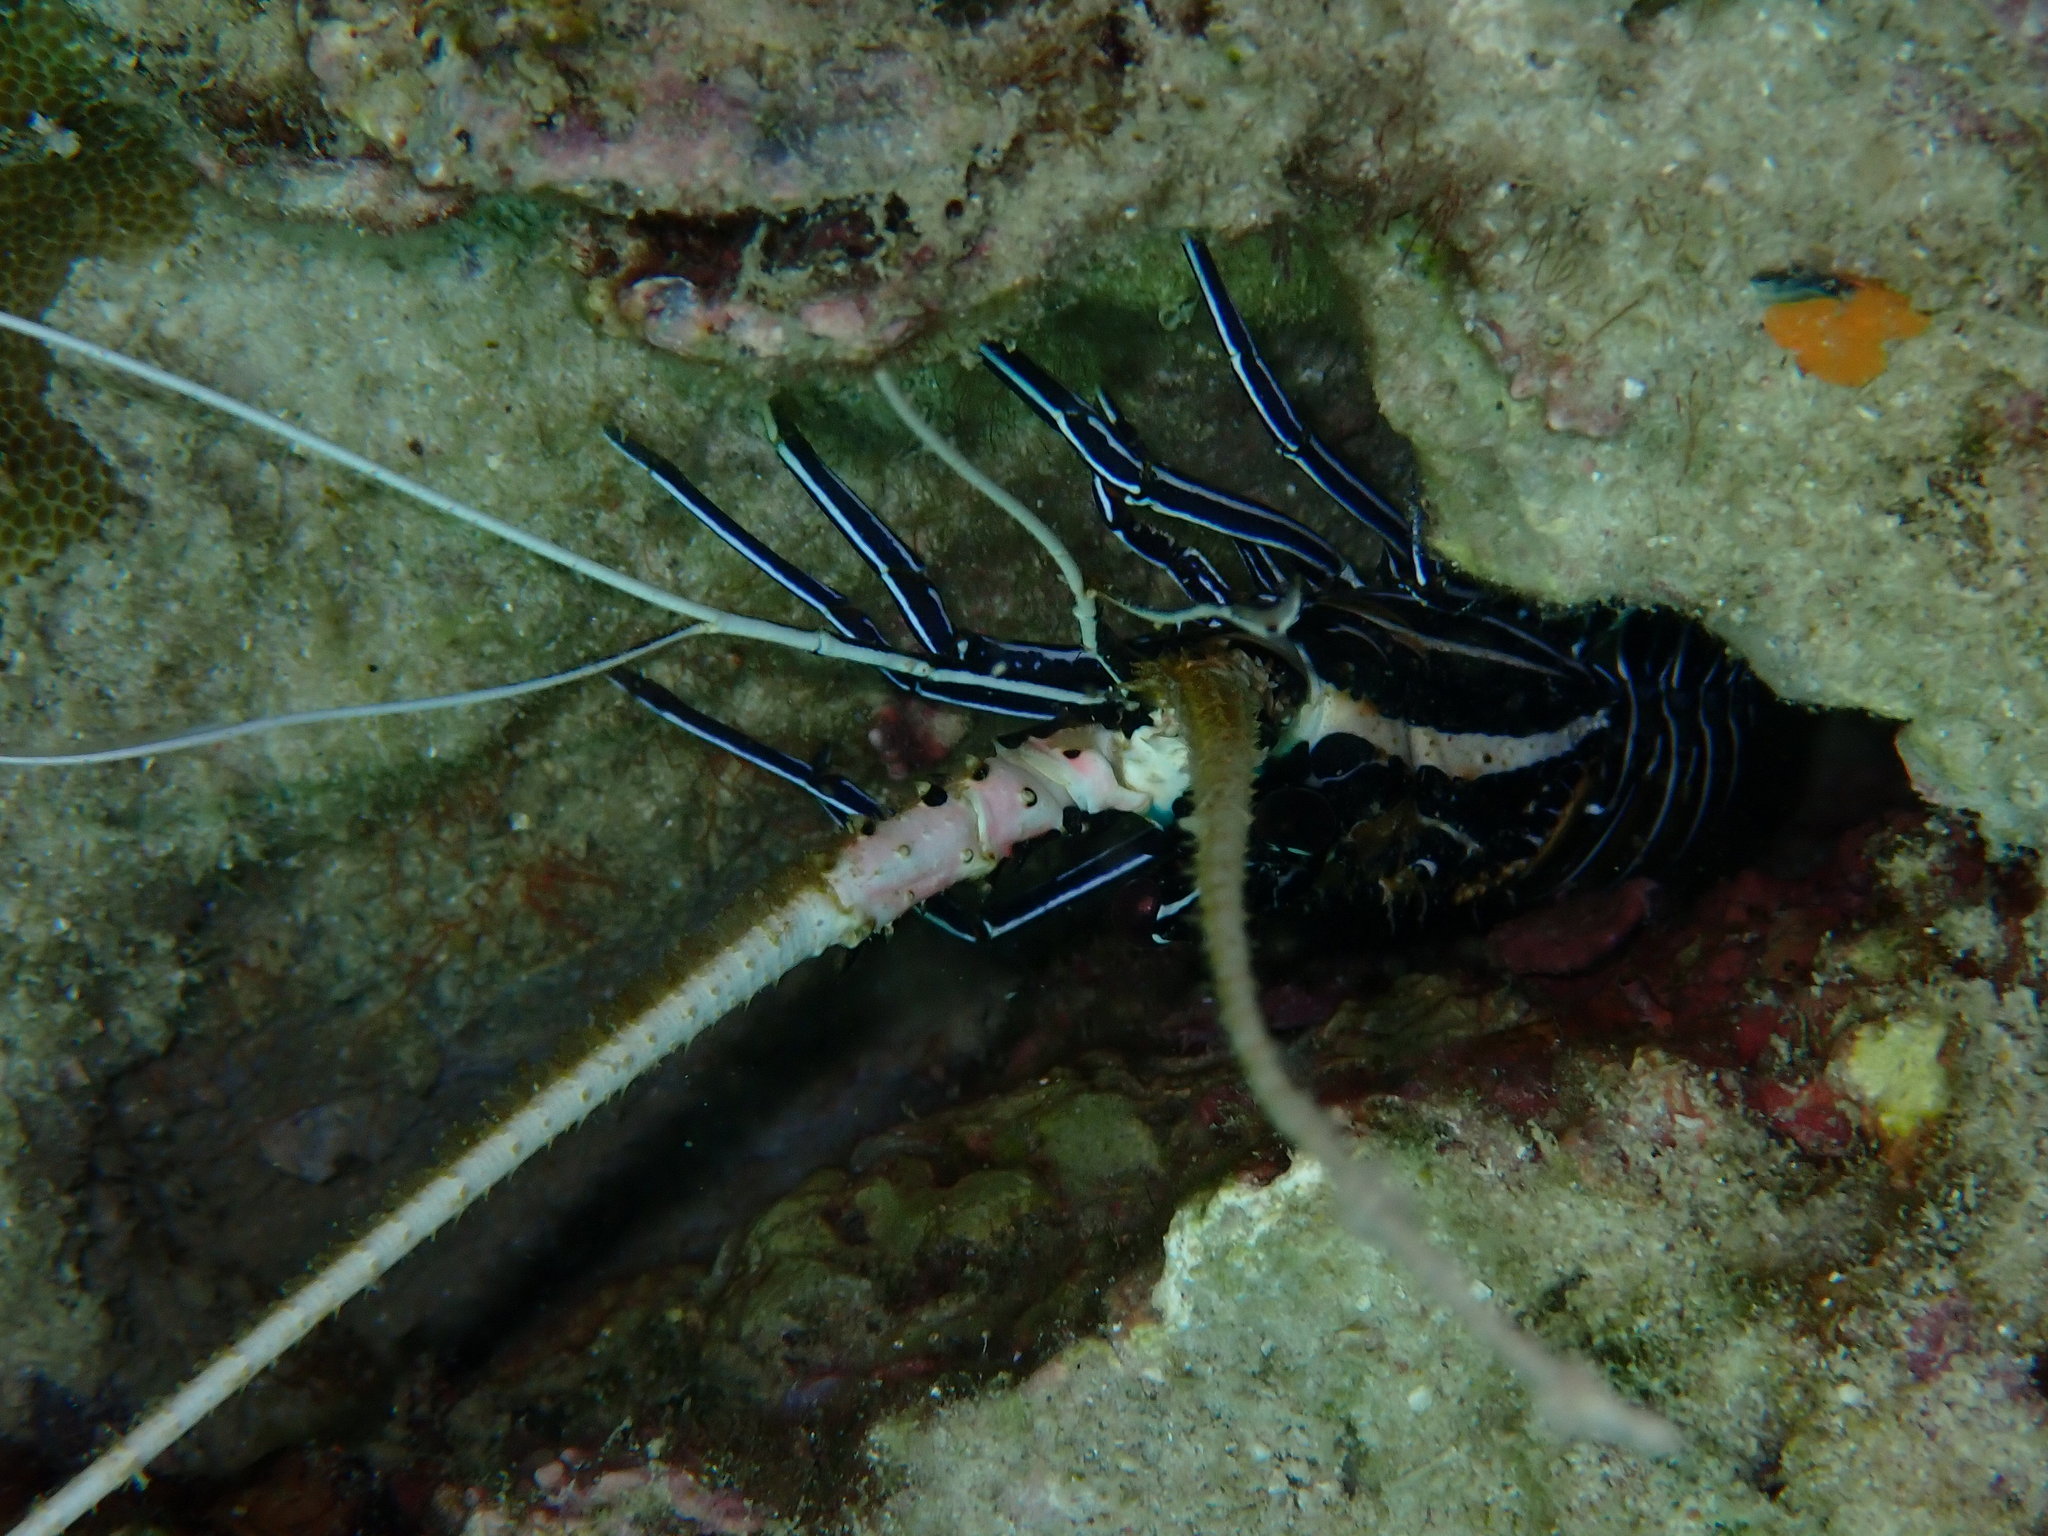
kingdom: Animalia
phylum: Arthropoda
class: Malacostraca
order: Decapoda
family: Palinuridae
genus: Panulirus
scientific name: Panulirus versicolor
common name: Painted spiny lobster
